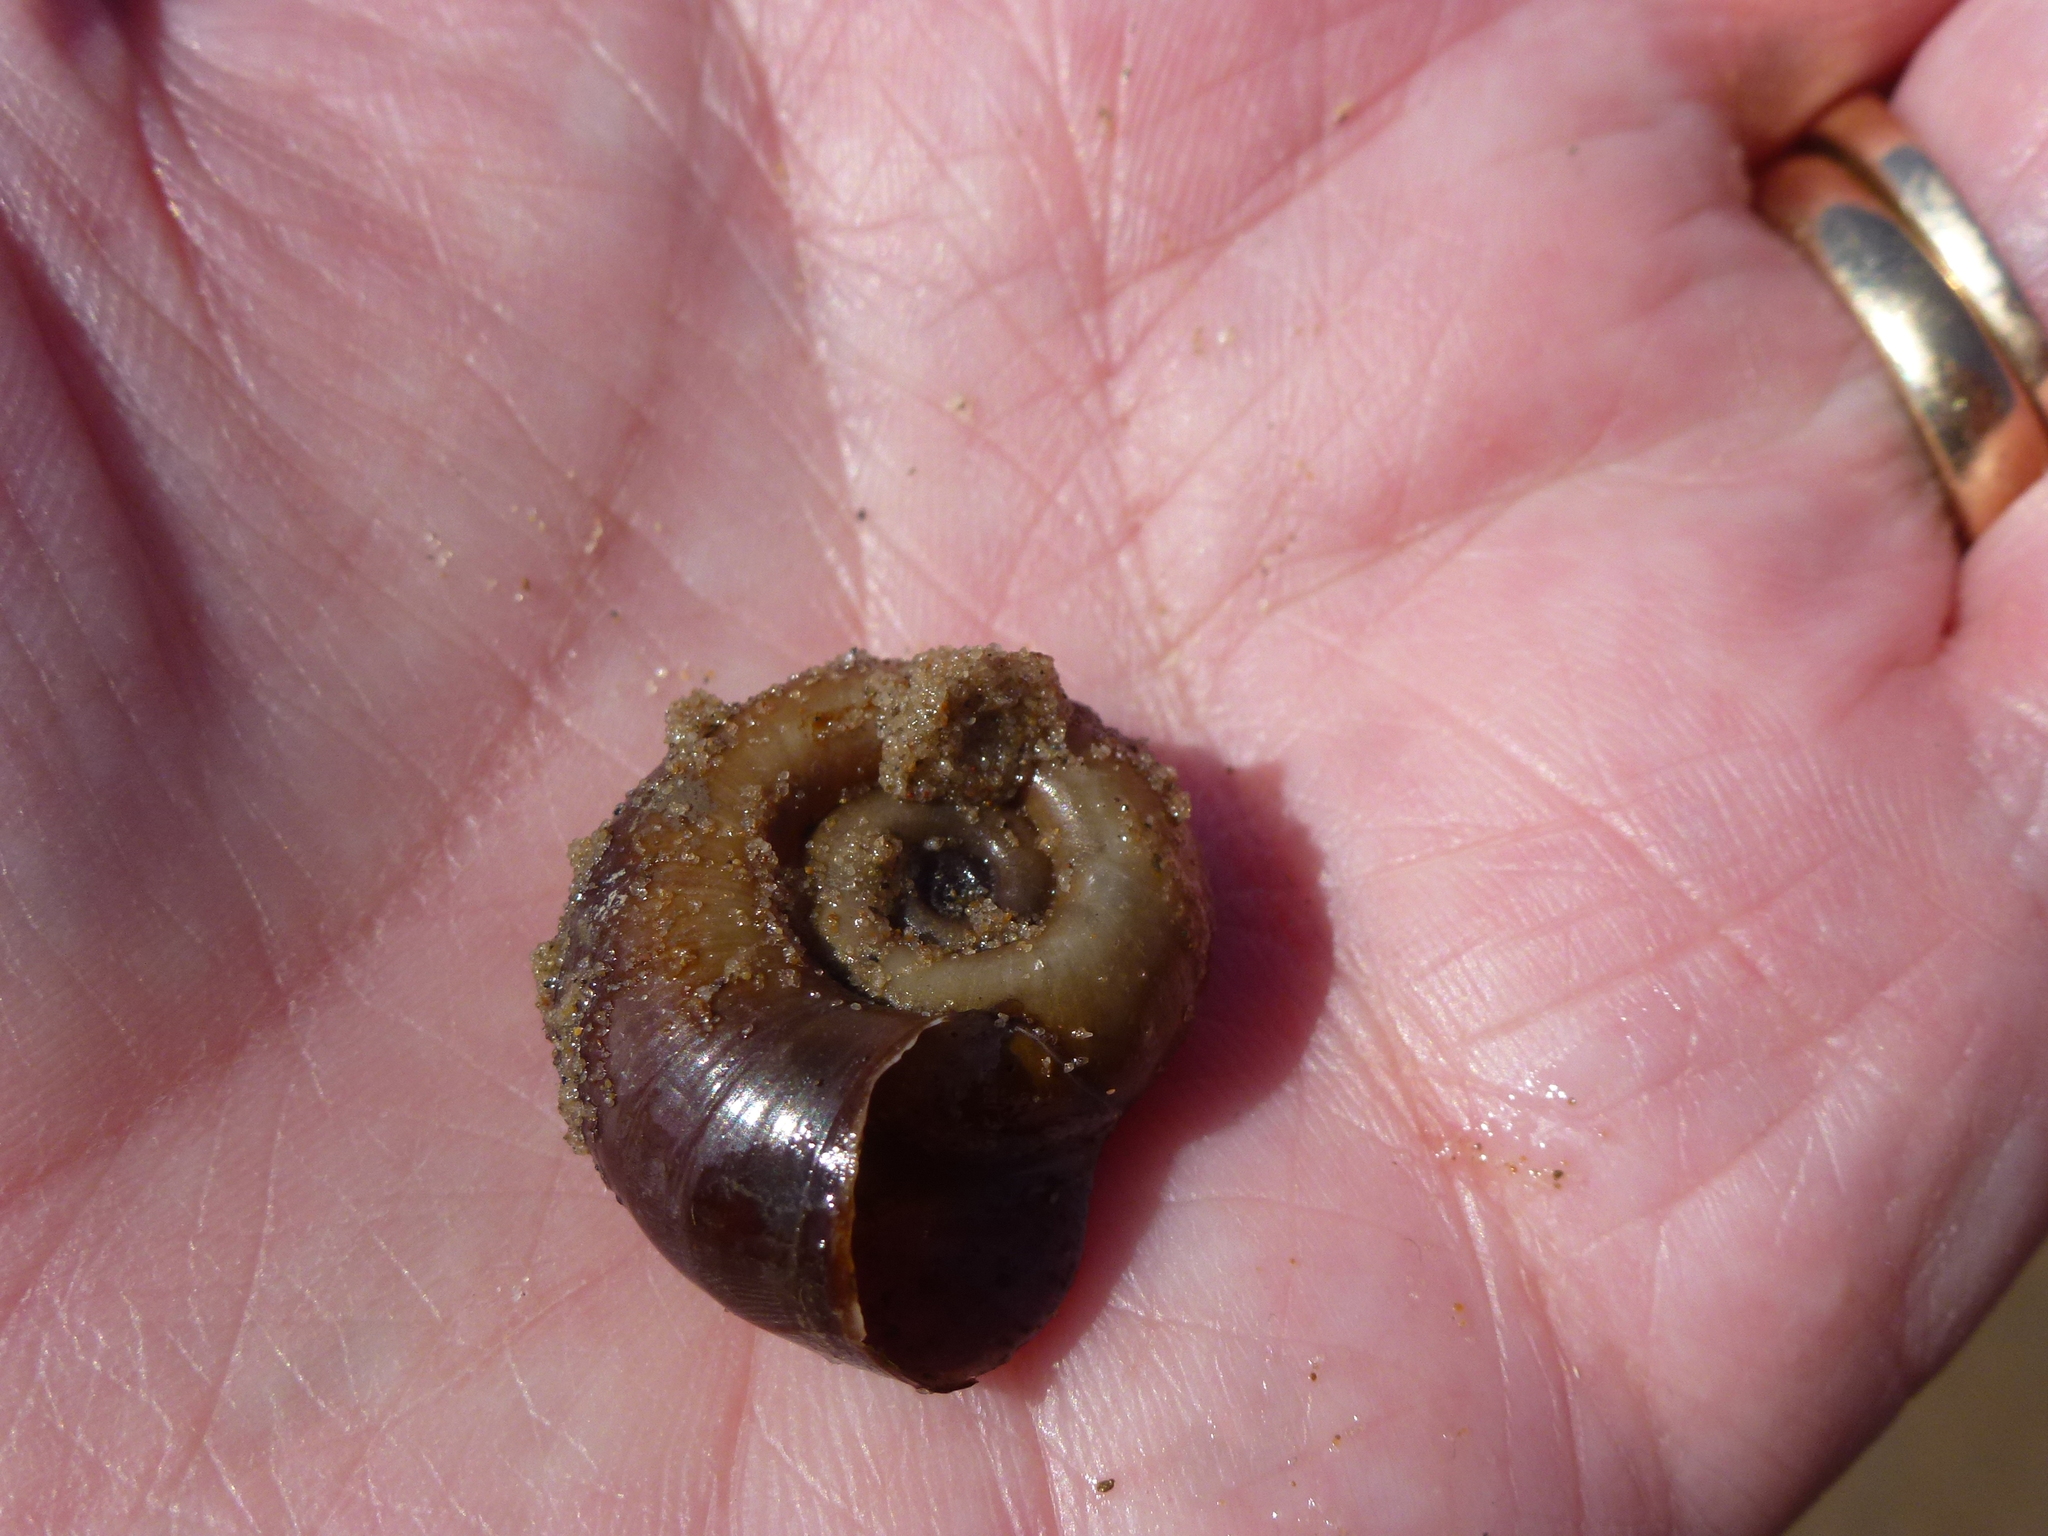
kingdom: Animalia
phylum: Mollusca
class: Gastropoda
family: Planorbidae
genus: Planorbarius
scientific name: Planorbarius corneus
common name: Great ramshorn
